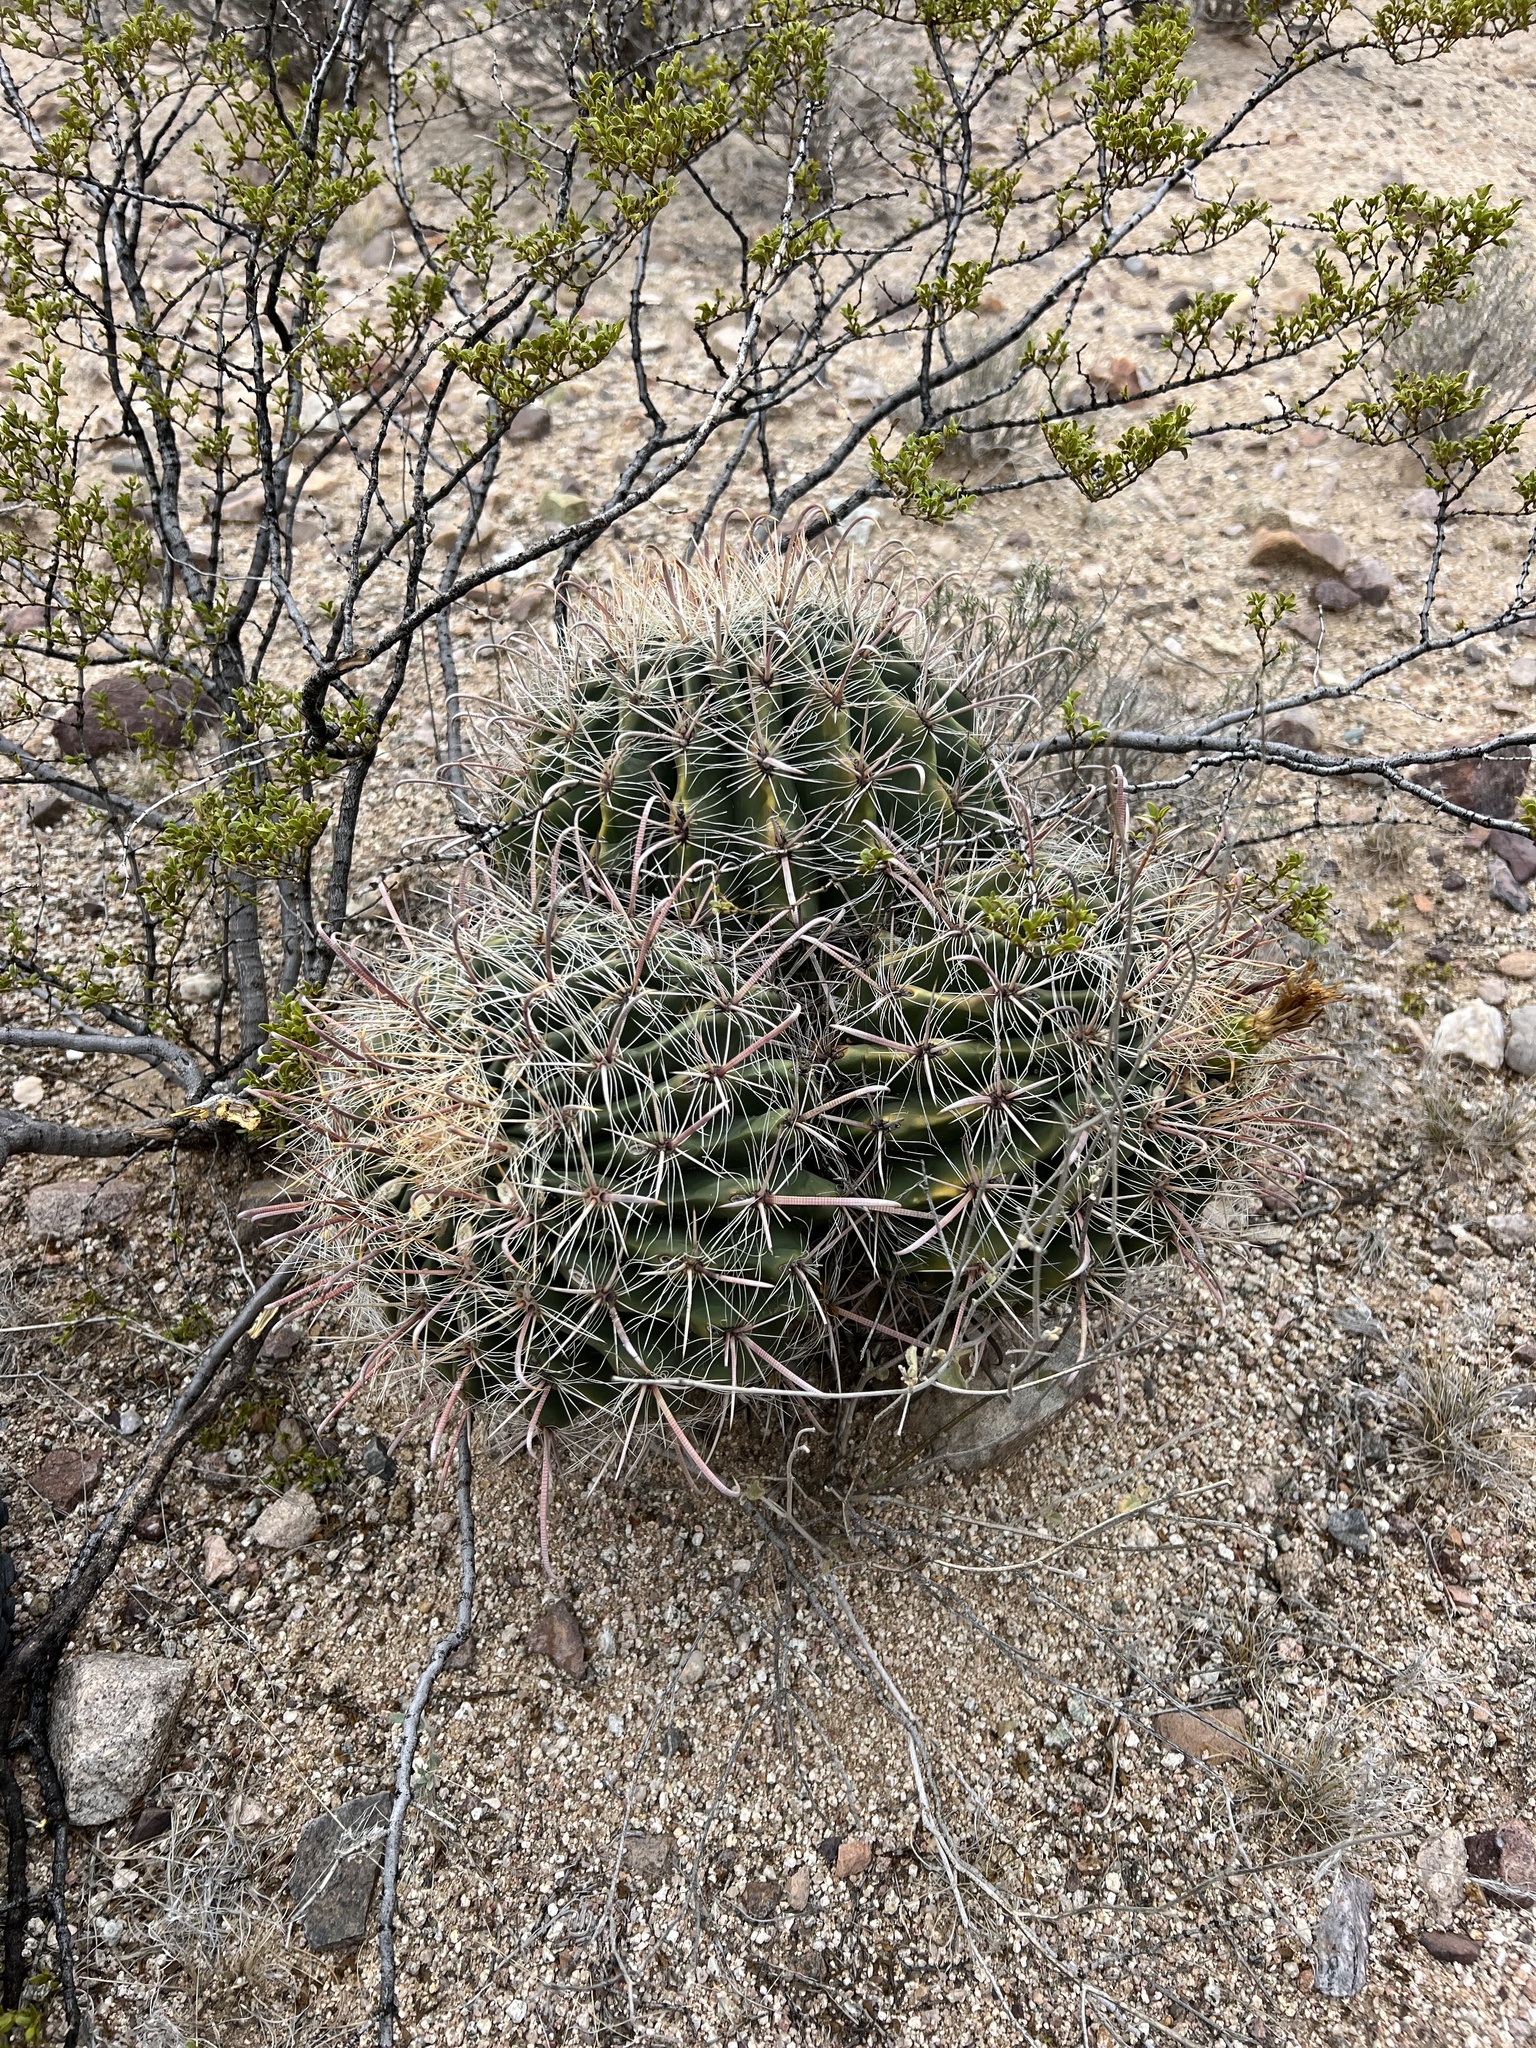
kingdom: Plantae
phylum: Tracheophyta
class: Magnoliopsida
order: Caryophyllales
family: Cactaceae
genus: Ferocactus
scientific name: Ferocactus wislizeni
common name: Candy barrel cactus
